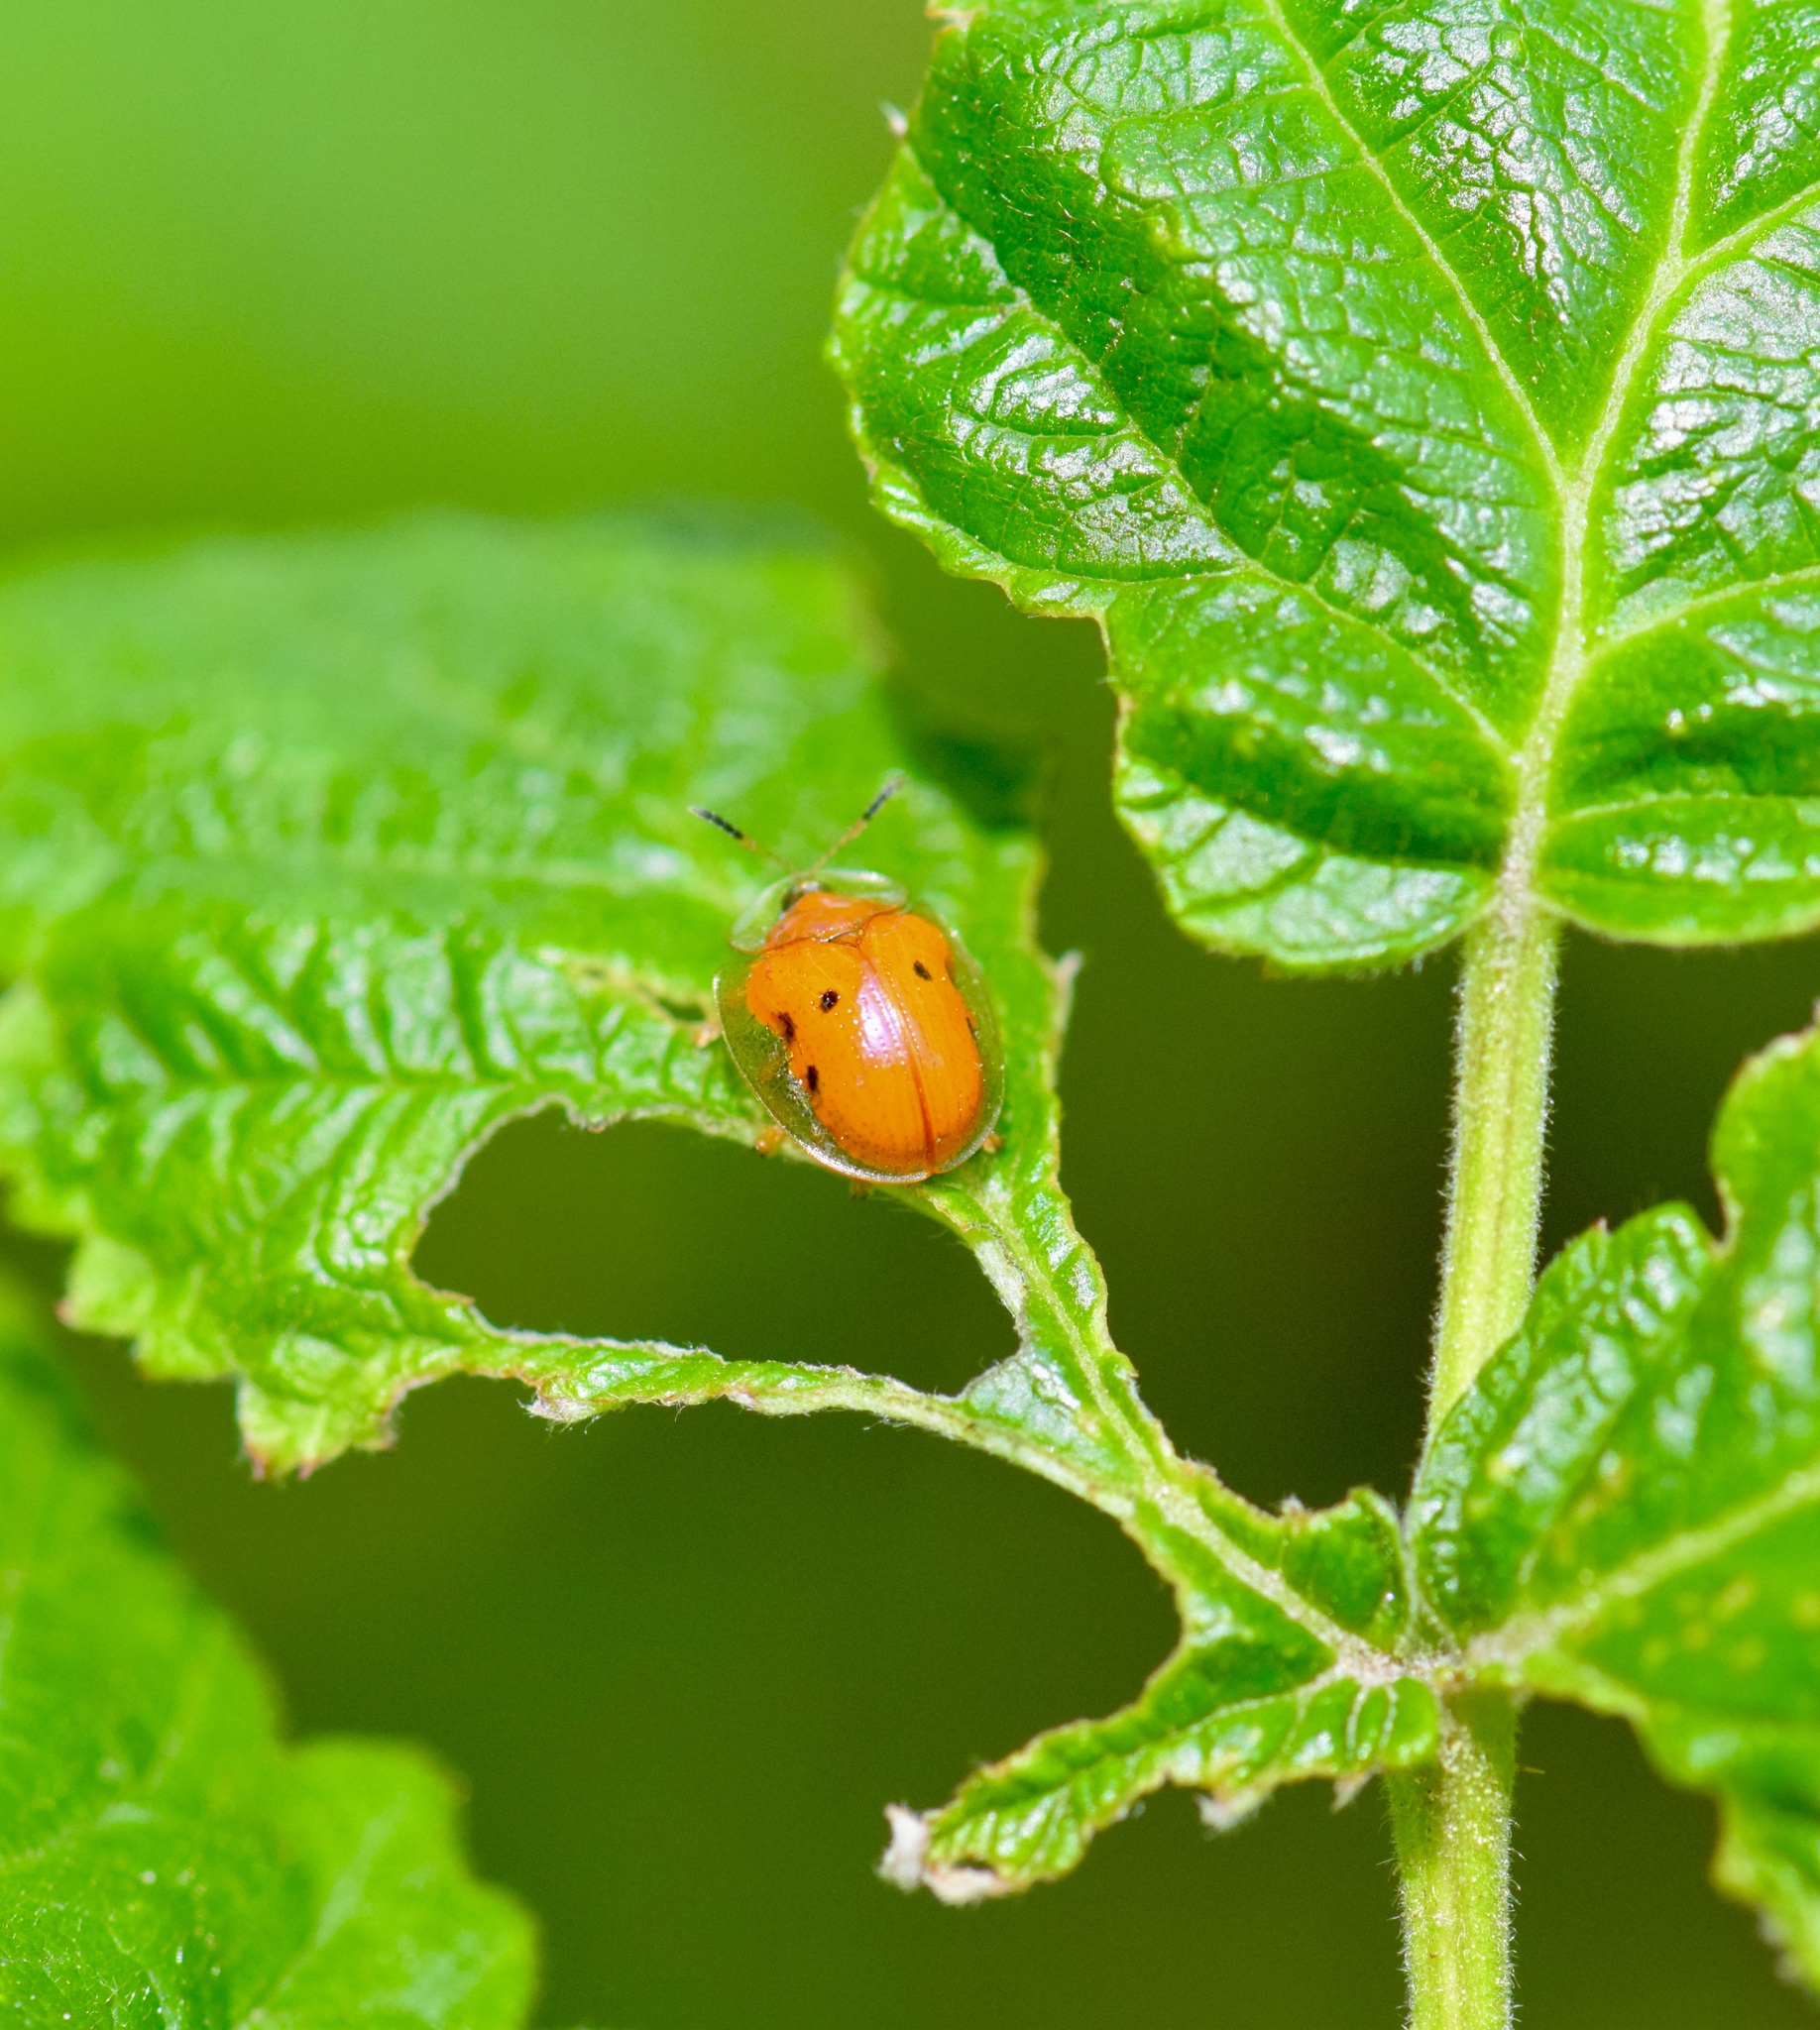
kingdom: Animalia
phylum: Arthropoda
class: Insecta
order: Coleoptera
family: Chrysomelidae
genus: Charidotella
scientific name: Charidotella sexpunctata
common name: Golden tortoise beetle
